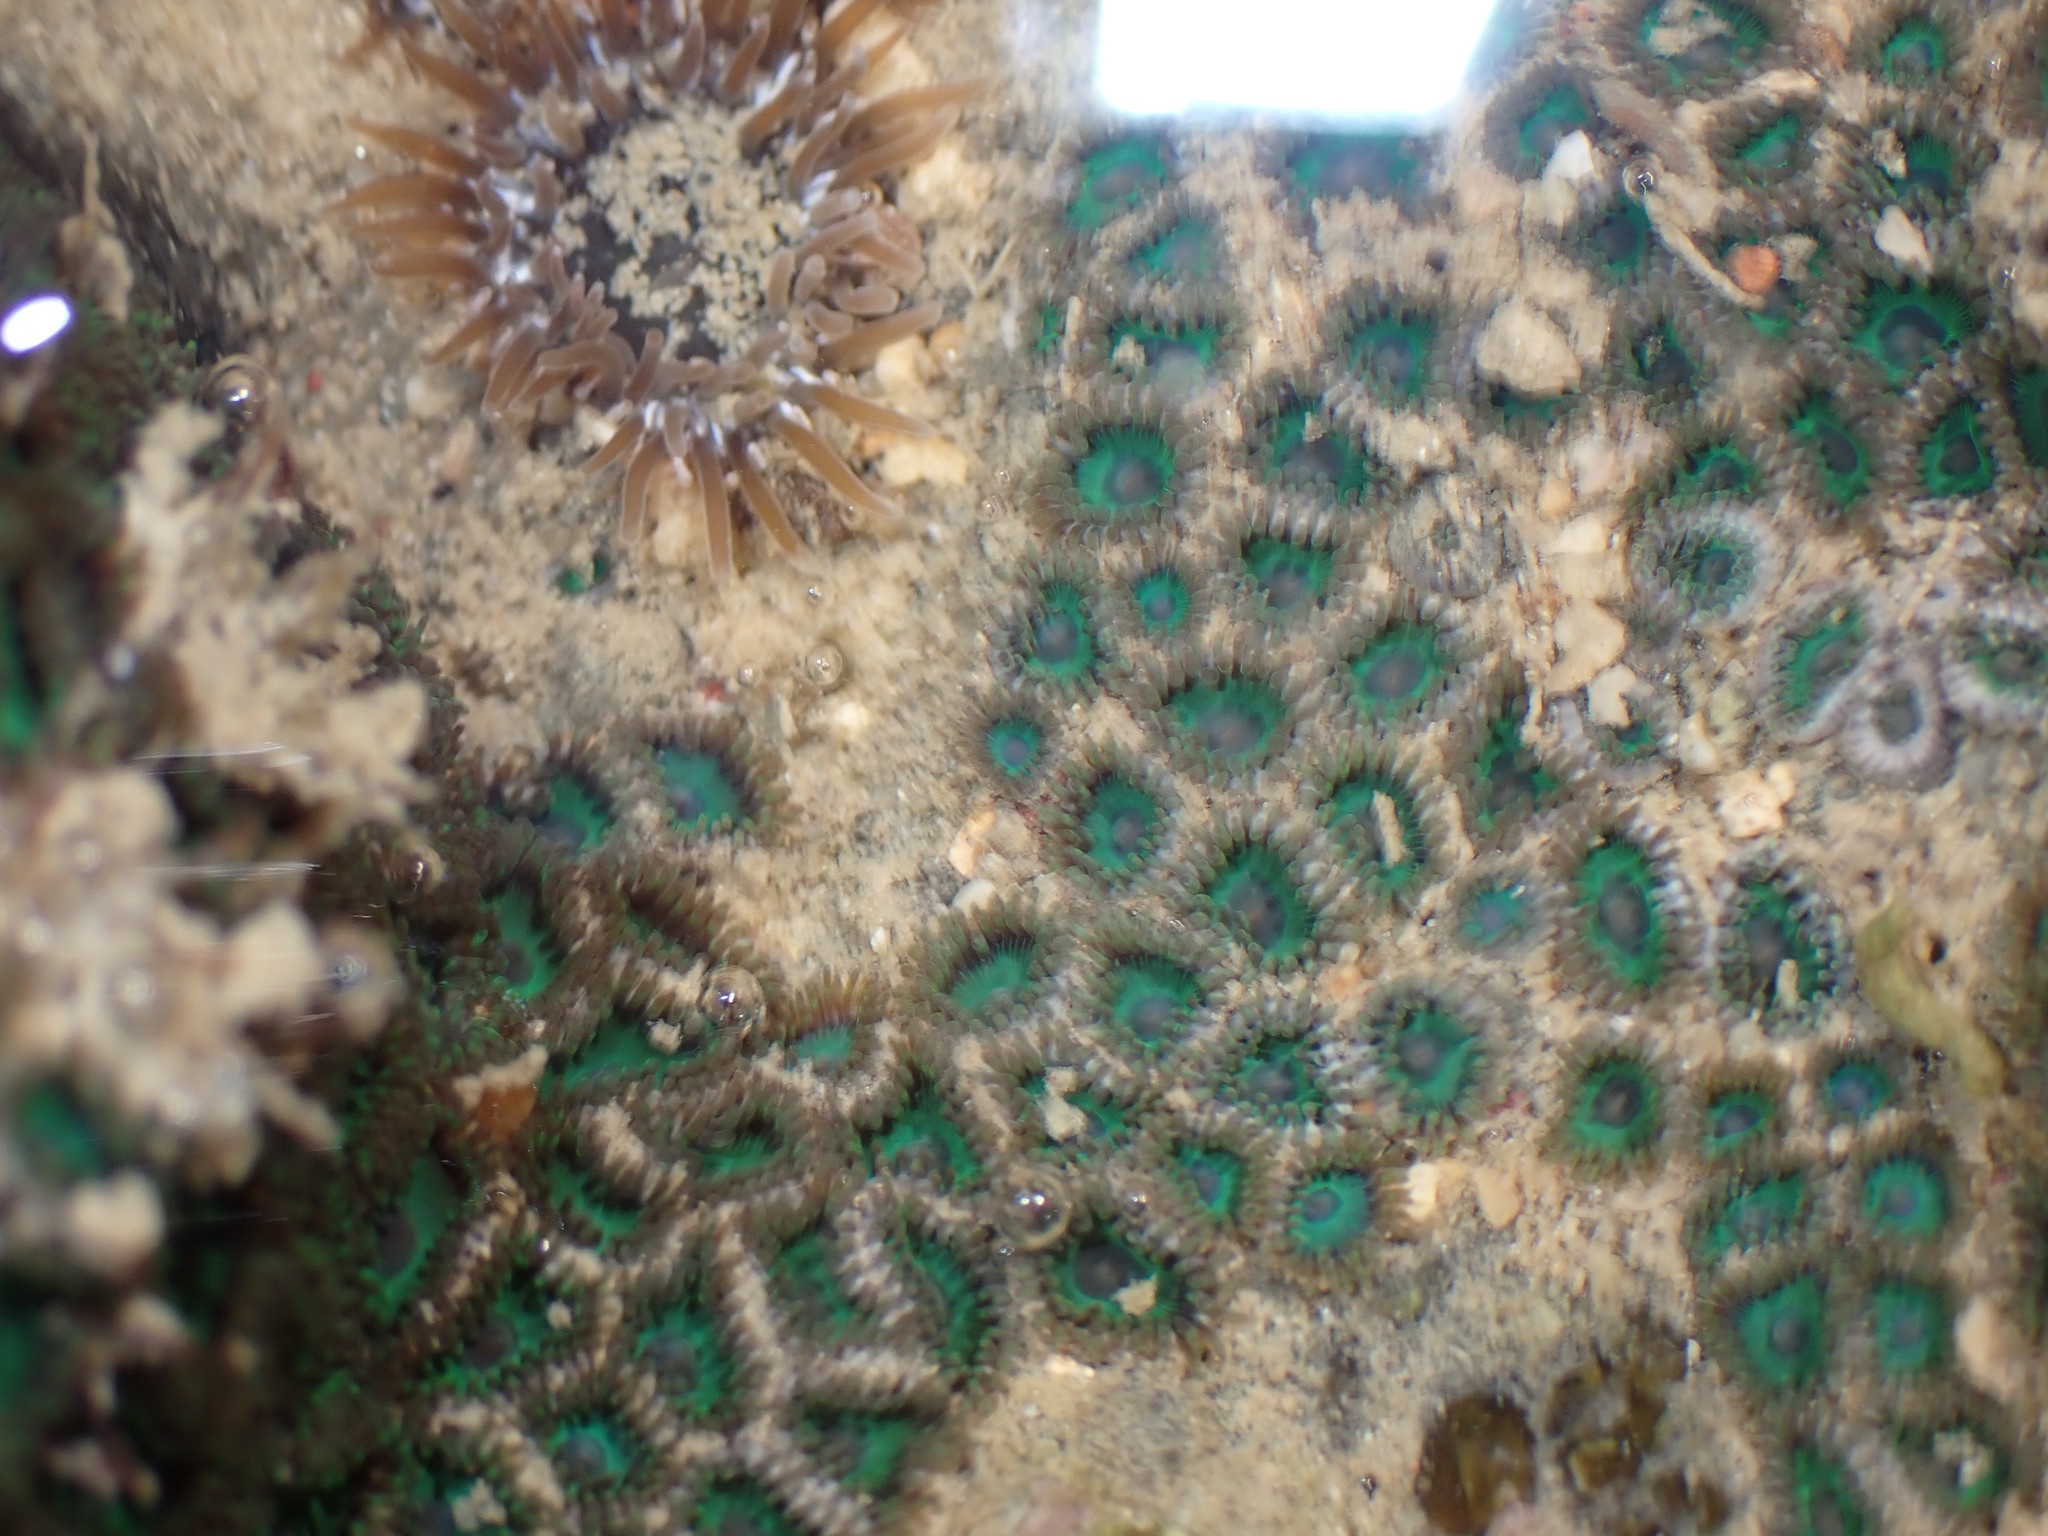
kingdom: Animalia
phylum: Cnidaria
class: Anthozoa
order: Zoantharia
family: Zoanthidae
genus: Zoanthus
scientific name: Zoanthus sansibaricus
